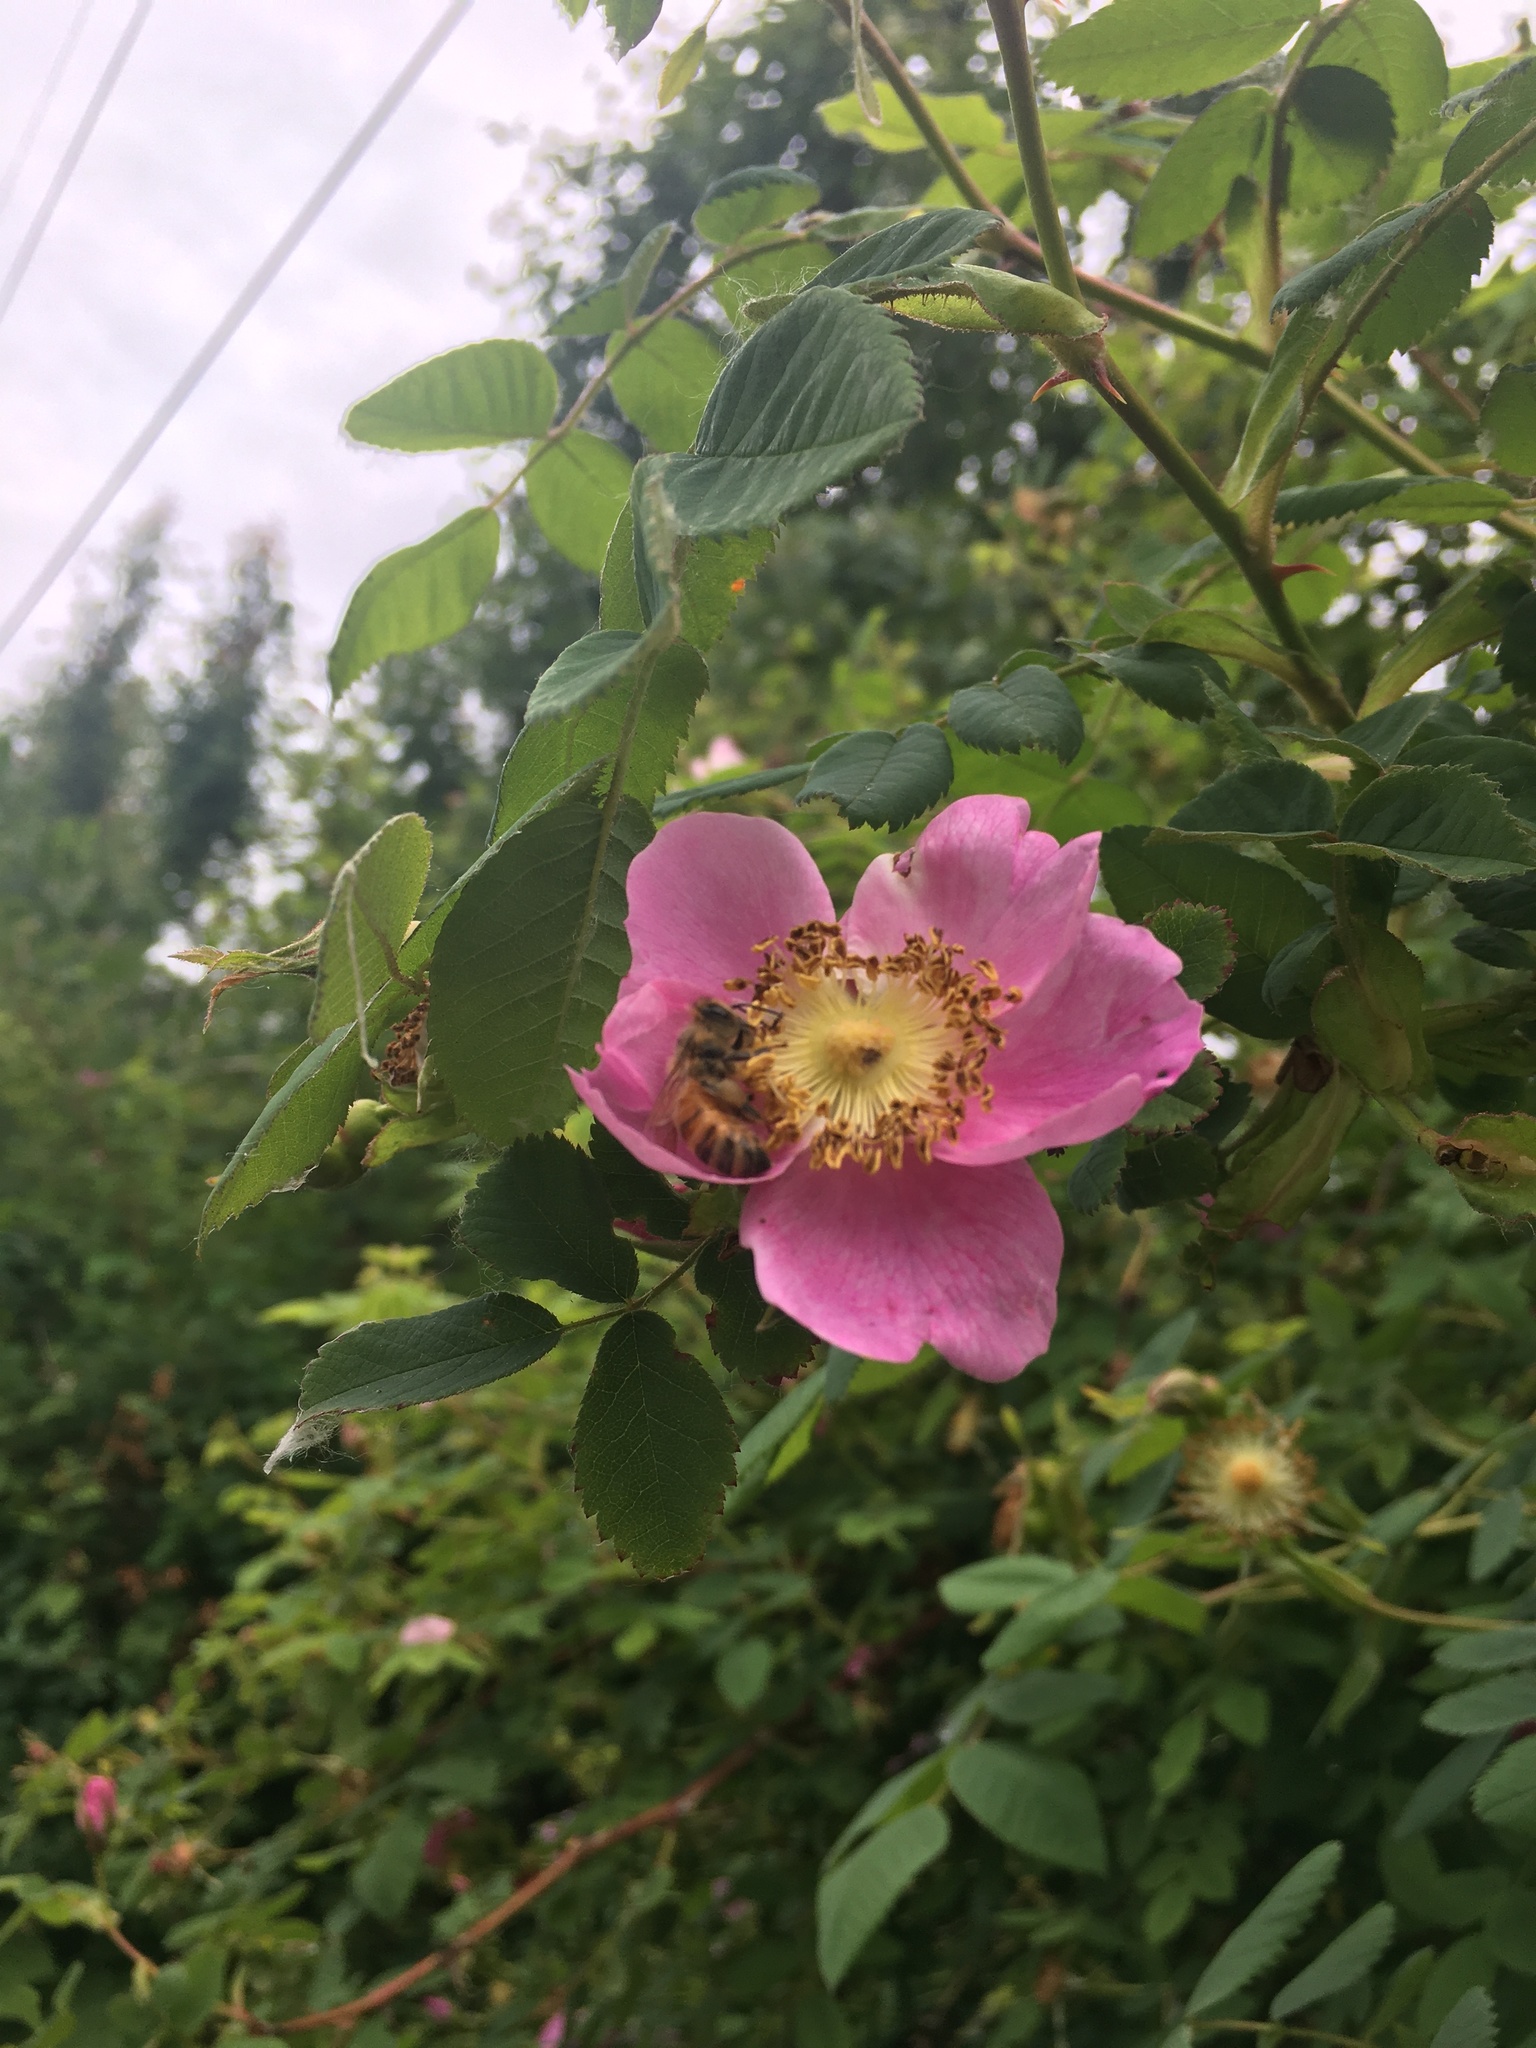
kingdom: Animalia
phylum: Arthropoda
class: Insecta
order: Hymenoptera
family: Apidae
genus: Apis
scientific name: Apis mellifera
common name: Honey bee
